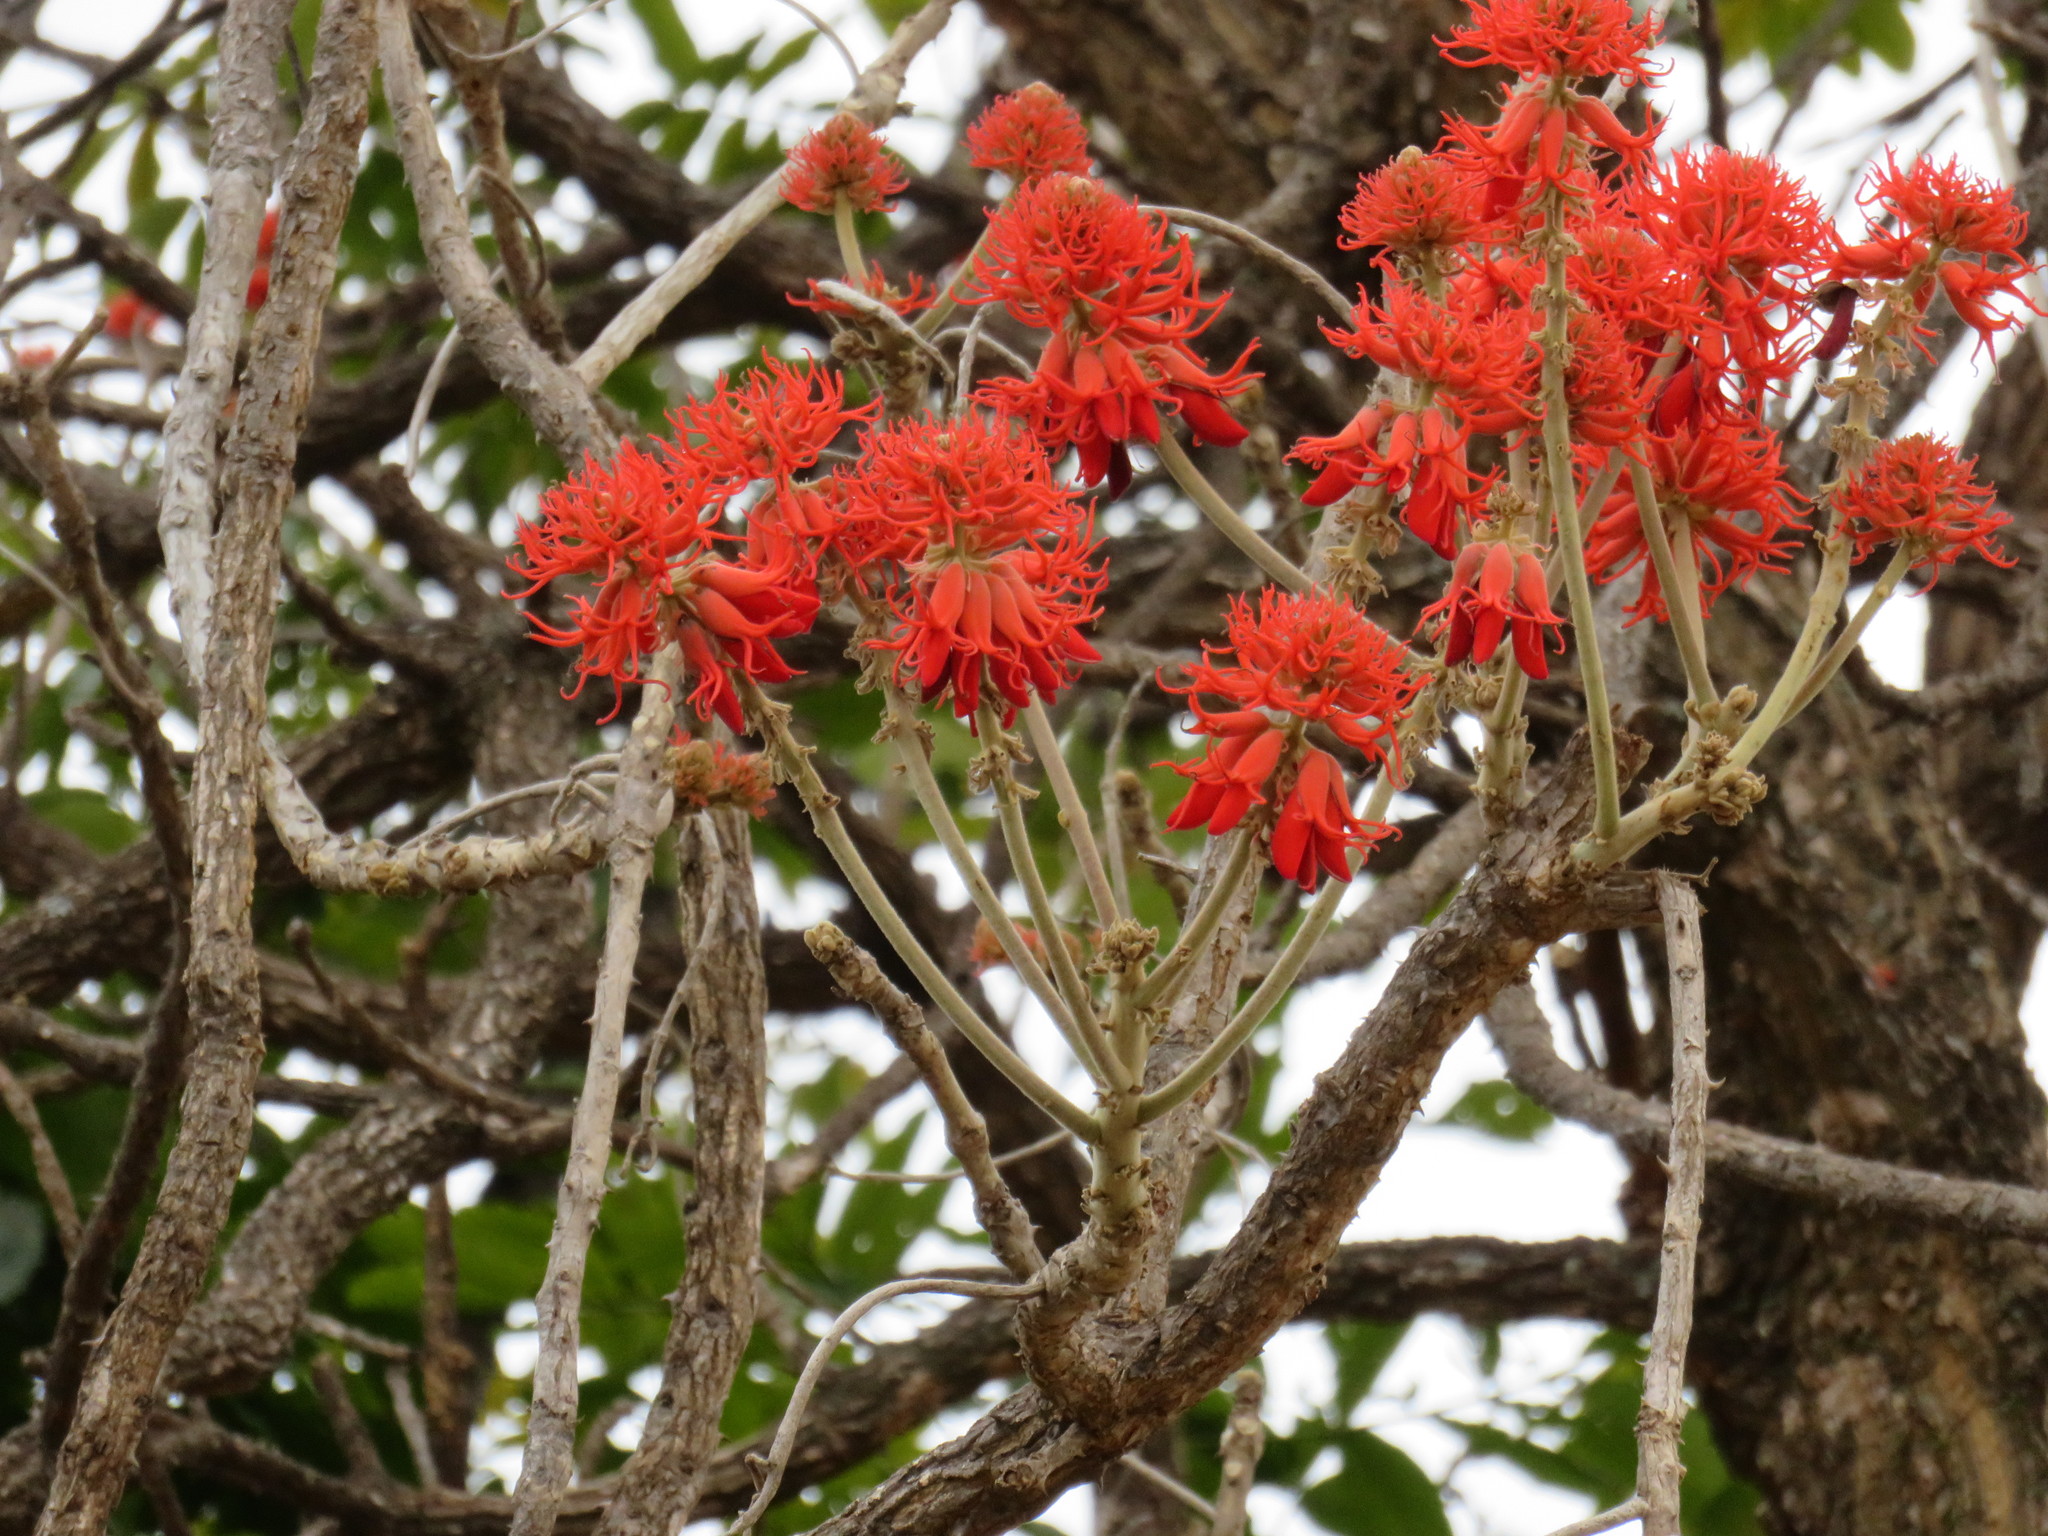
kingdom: Plantae
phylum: Tracheophyta
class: Magnoliopsida
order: Fabales
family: Fabaceae
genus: Erythrina
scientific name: Erythrina abyssinica
